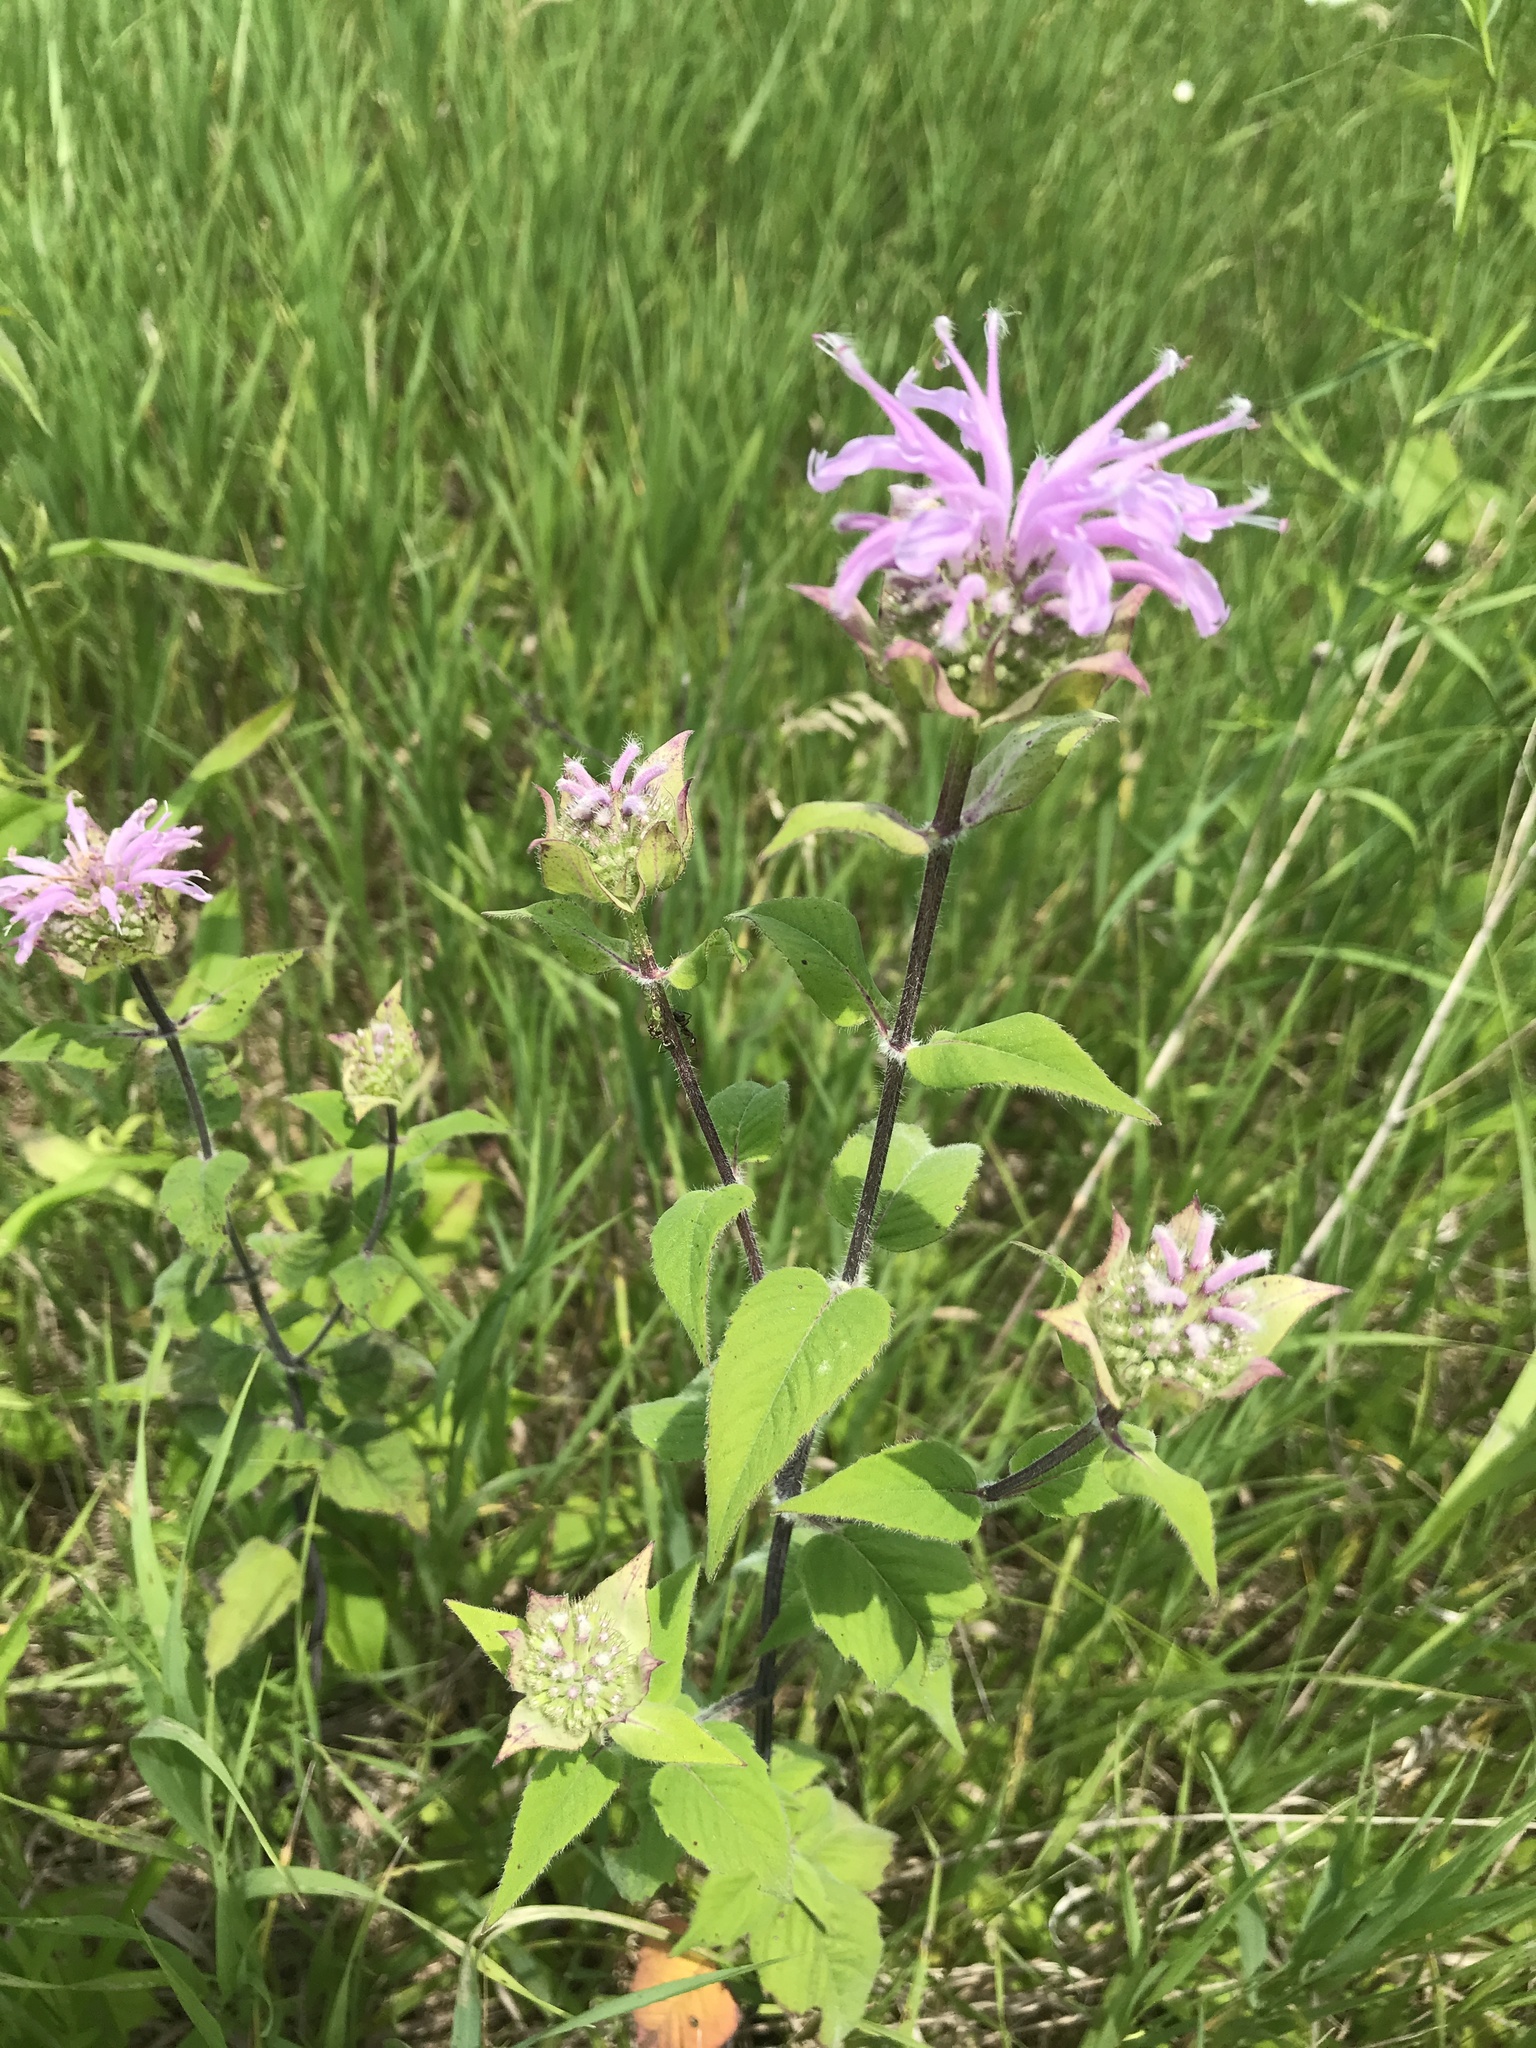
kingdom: Plantae
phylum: Tracheophyta
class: Magnoliopsida
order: Lamiales
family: Lamiaceae
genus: Monarda
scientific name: Monarda fistulosa
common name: Purple beebalm
